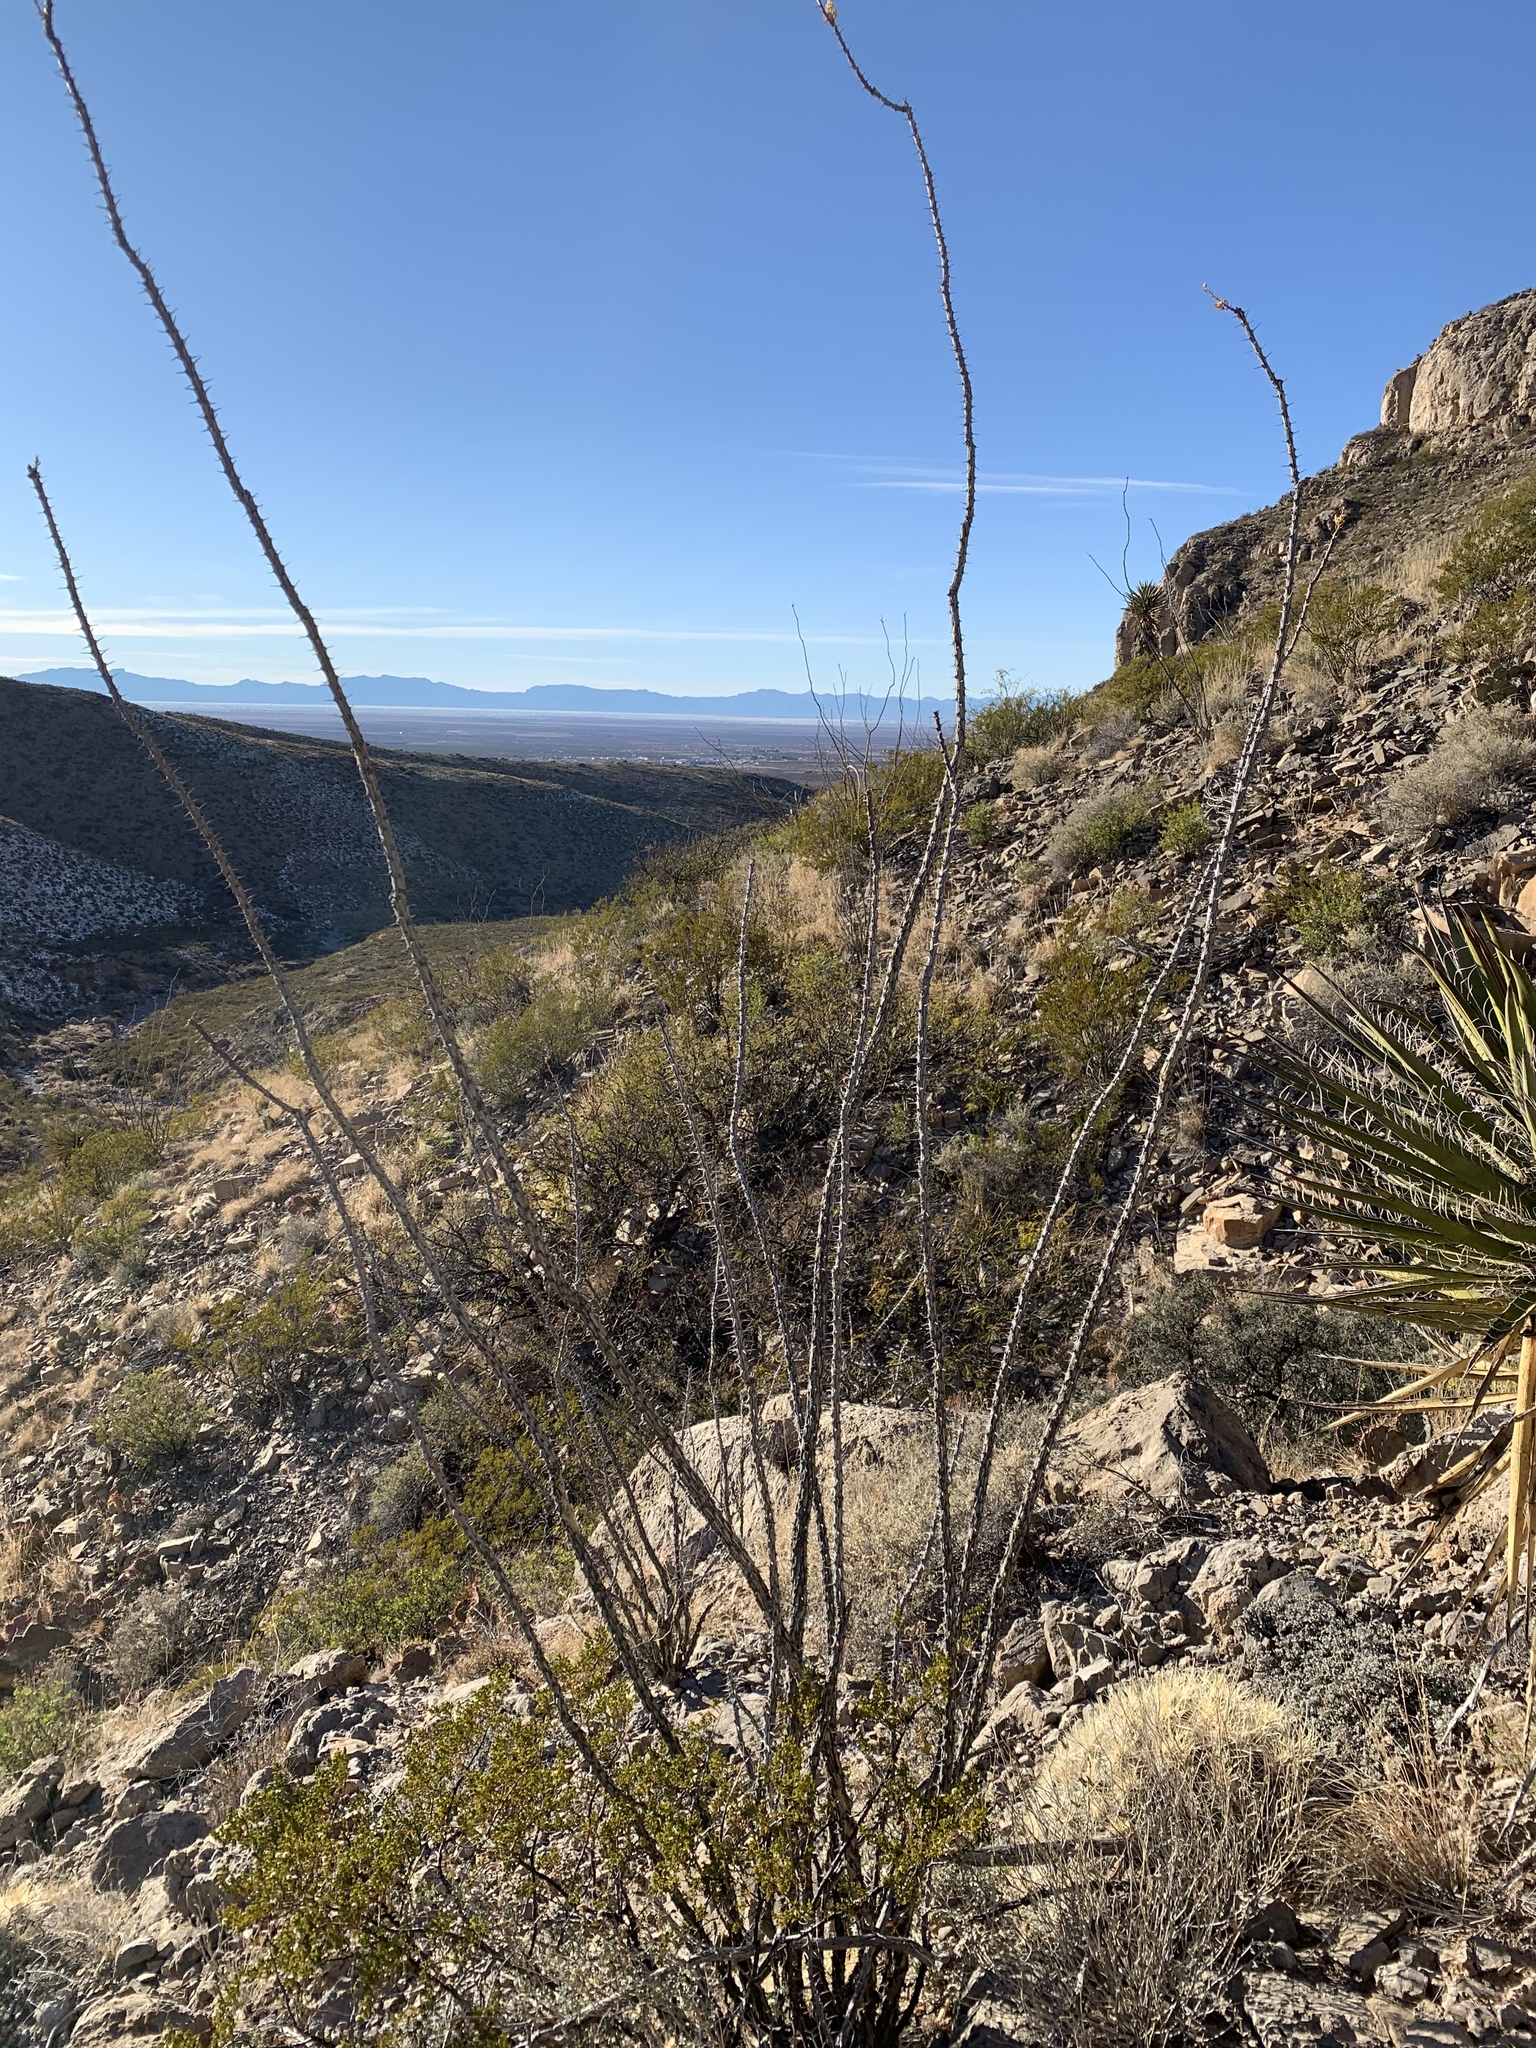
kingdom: Plantae
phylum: Tracheophyta
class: Magnoliopsida
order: Ericales
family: Fouquieriaceae
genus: Fouquieria
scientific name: Fouquieria splendens
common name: Vine-cactus
